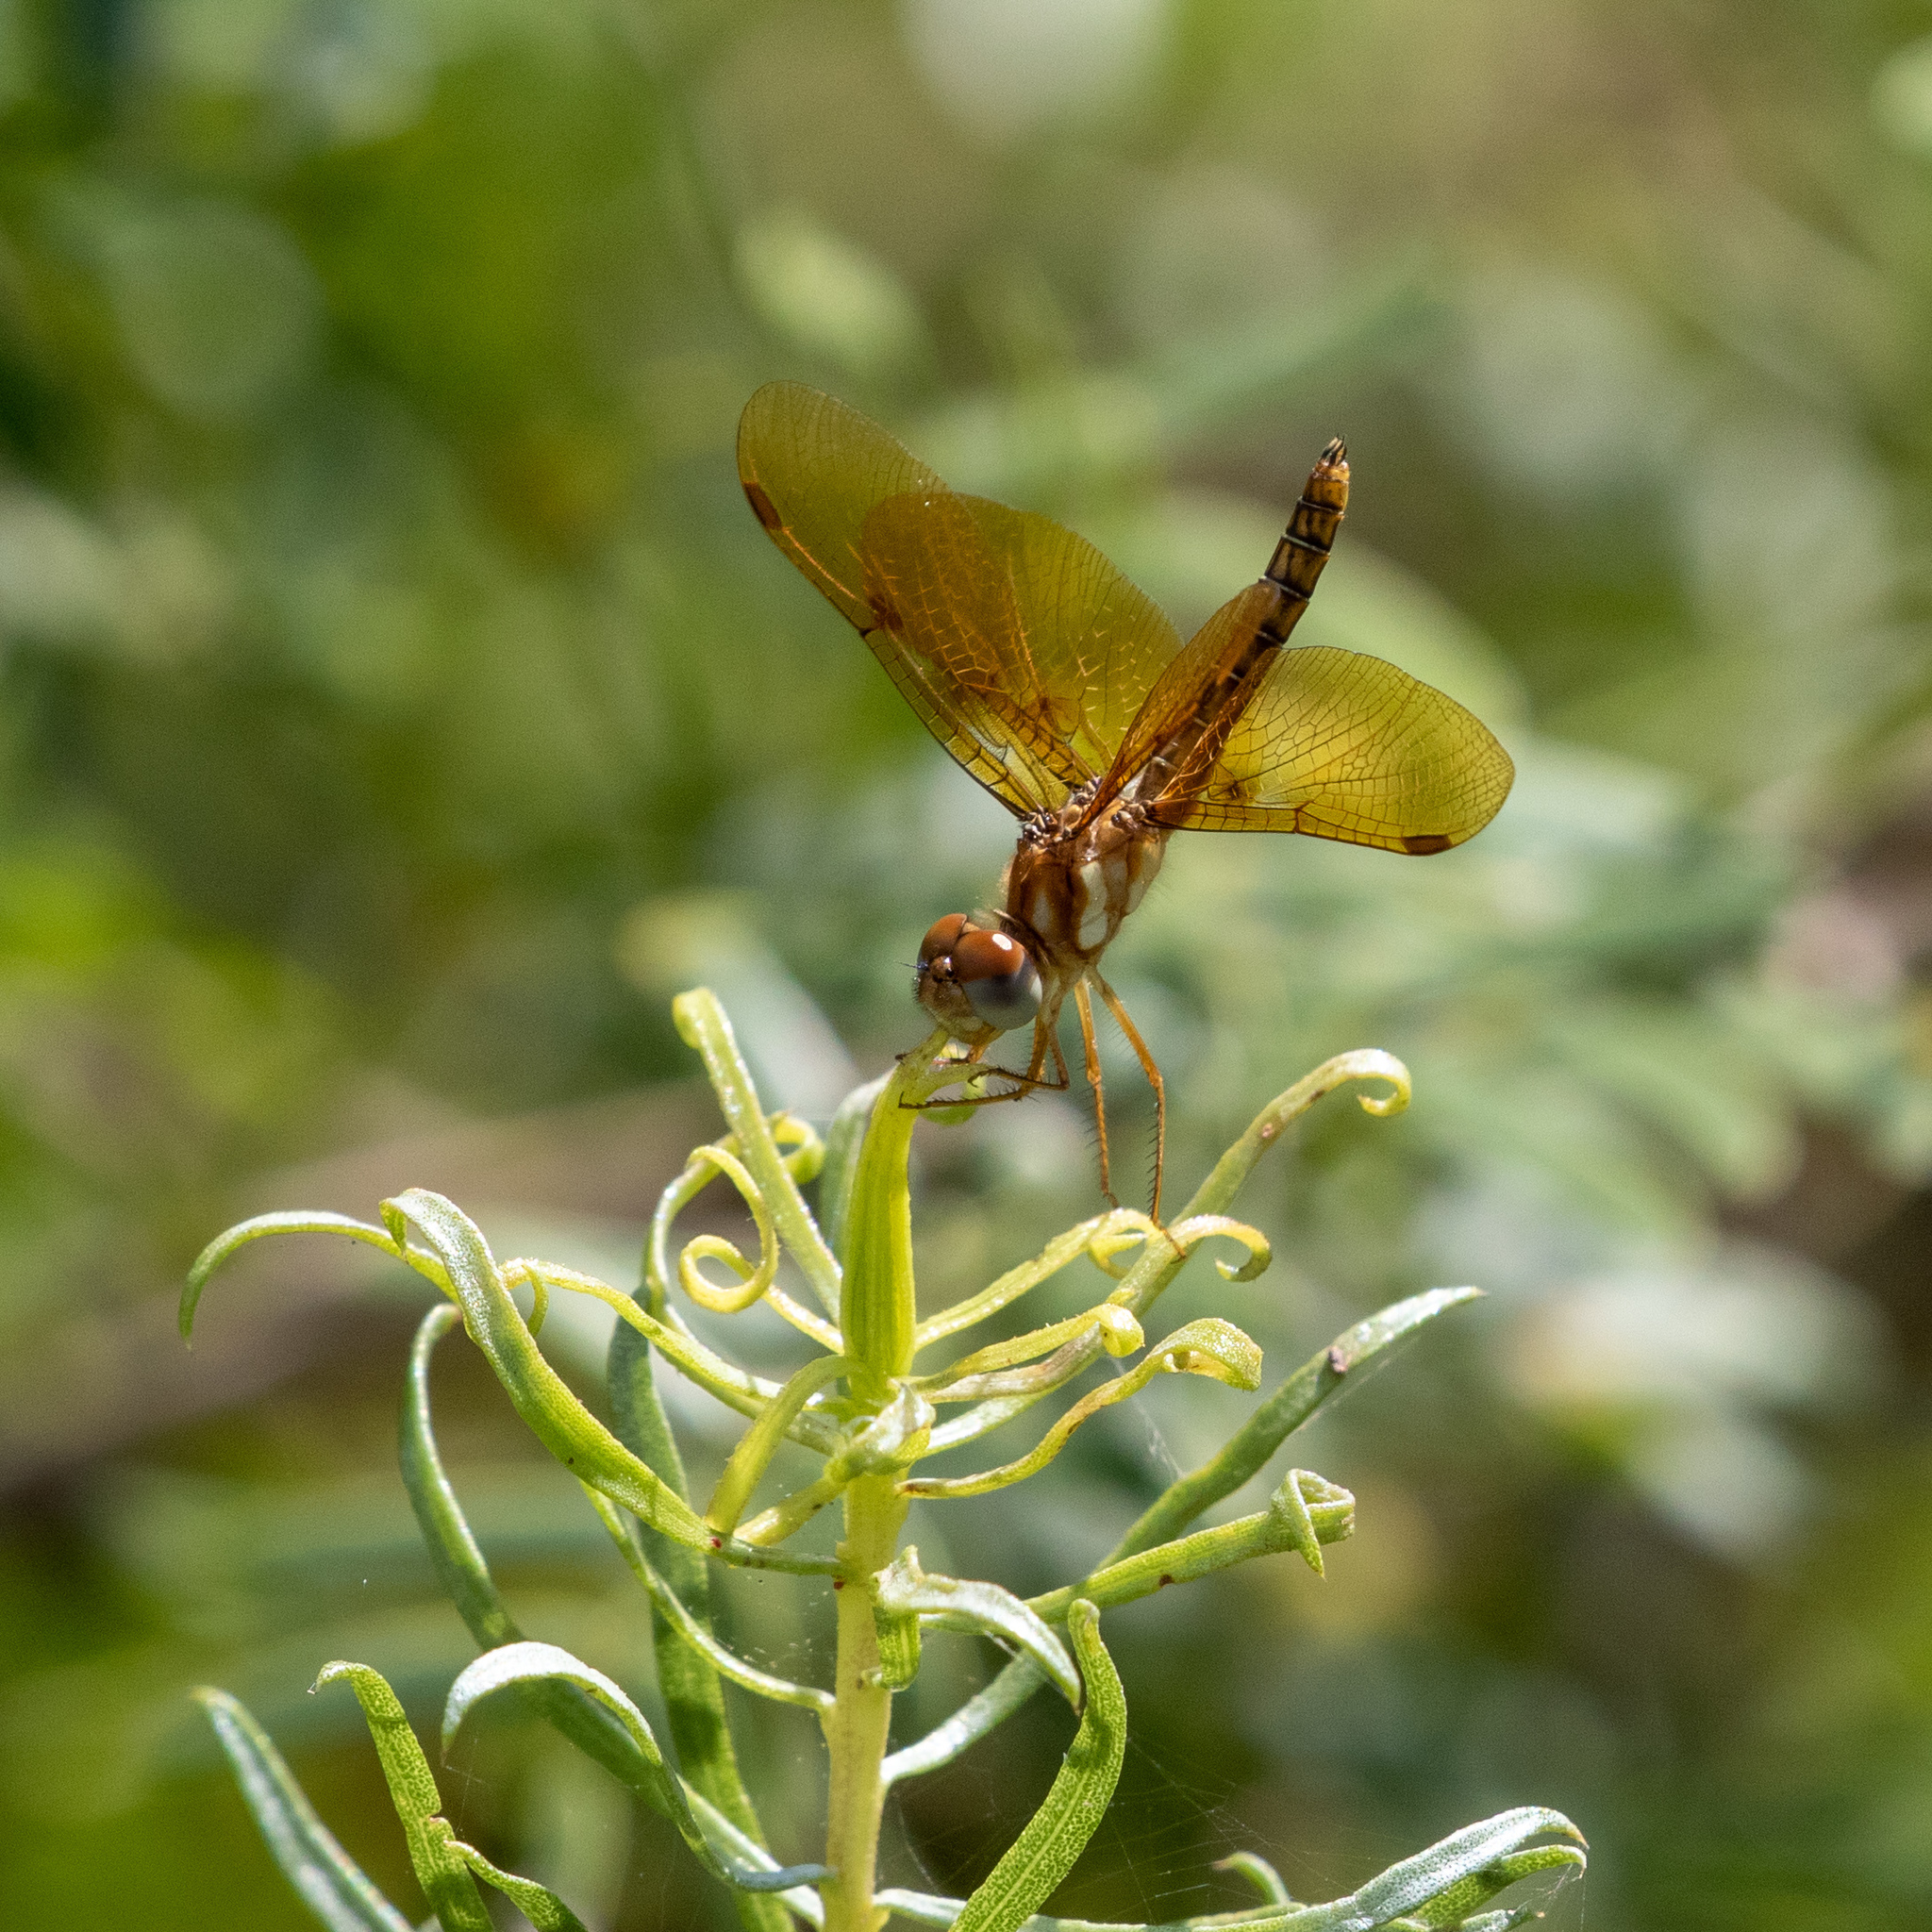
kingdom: Animalia
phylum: Arthropoda
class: Insecta
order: Odonata
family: Libellulidae
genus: Perithemis
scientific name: Perithemis tenera
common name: Eastern amberwing
